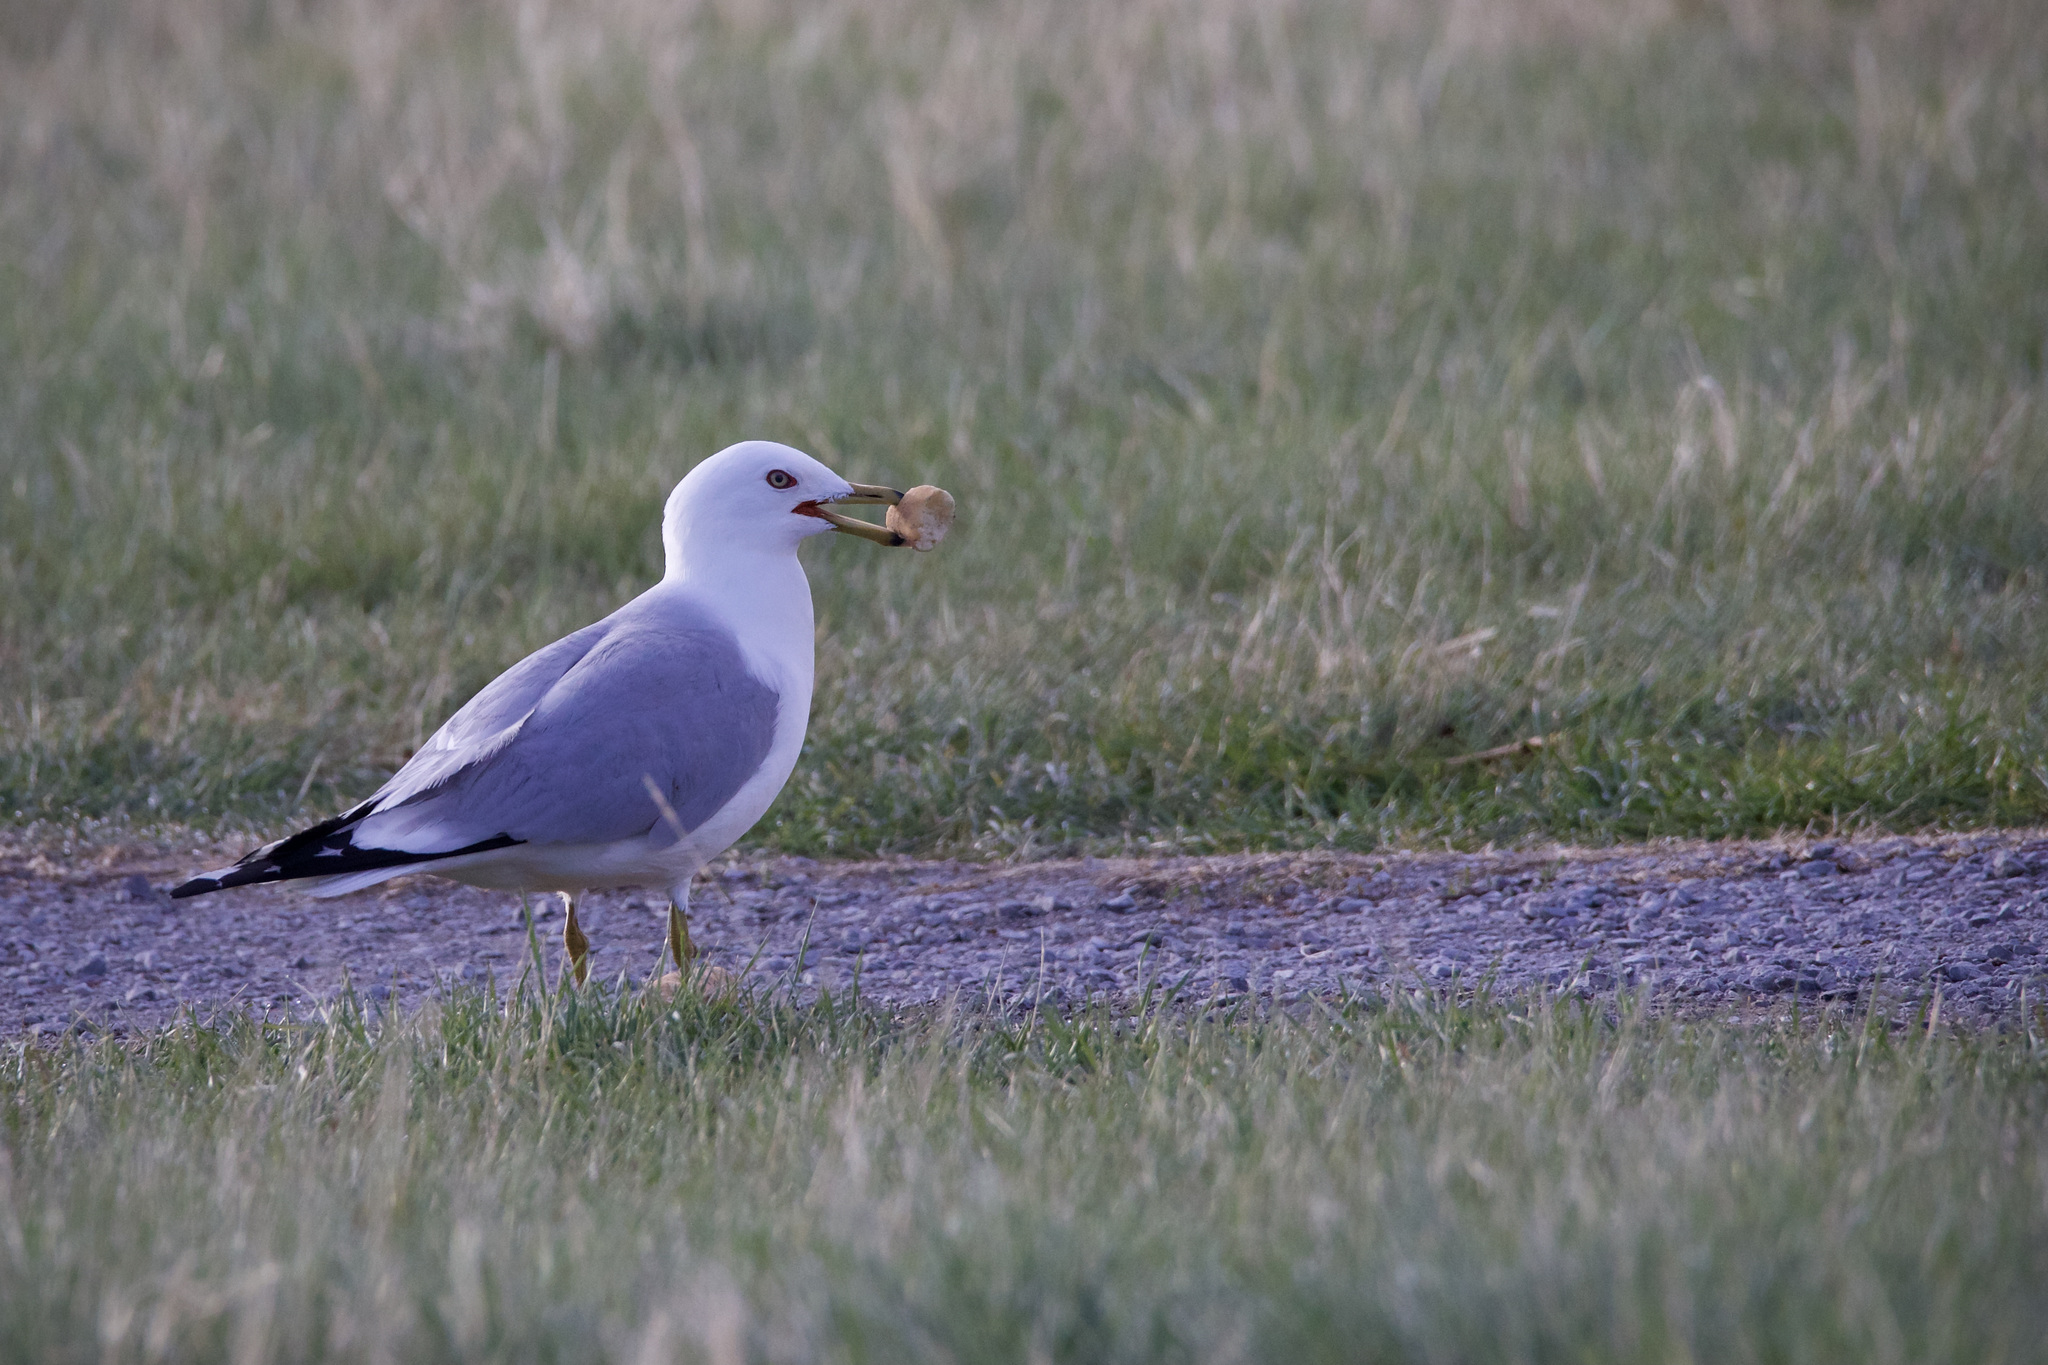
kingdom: Animalia
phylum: Chordata
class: Aves
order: Charadriiformes
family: Laridae
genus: Larus
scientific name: Larus delawarensis
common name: Ring-billed gull
